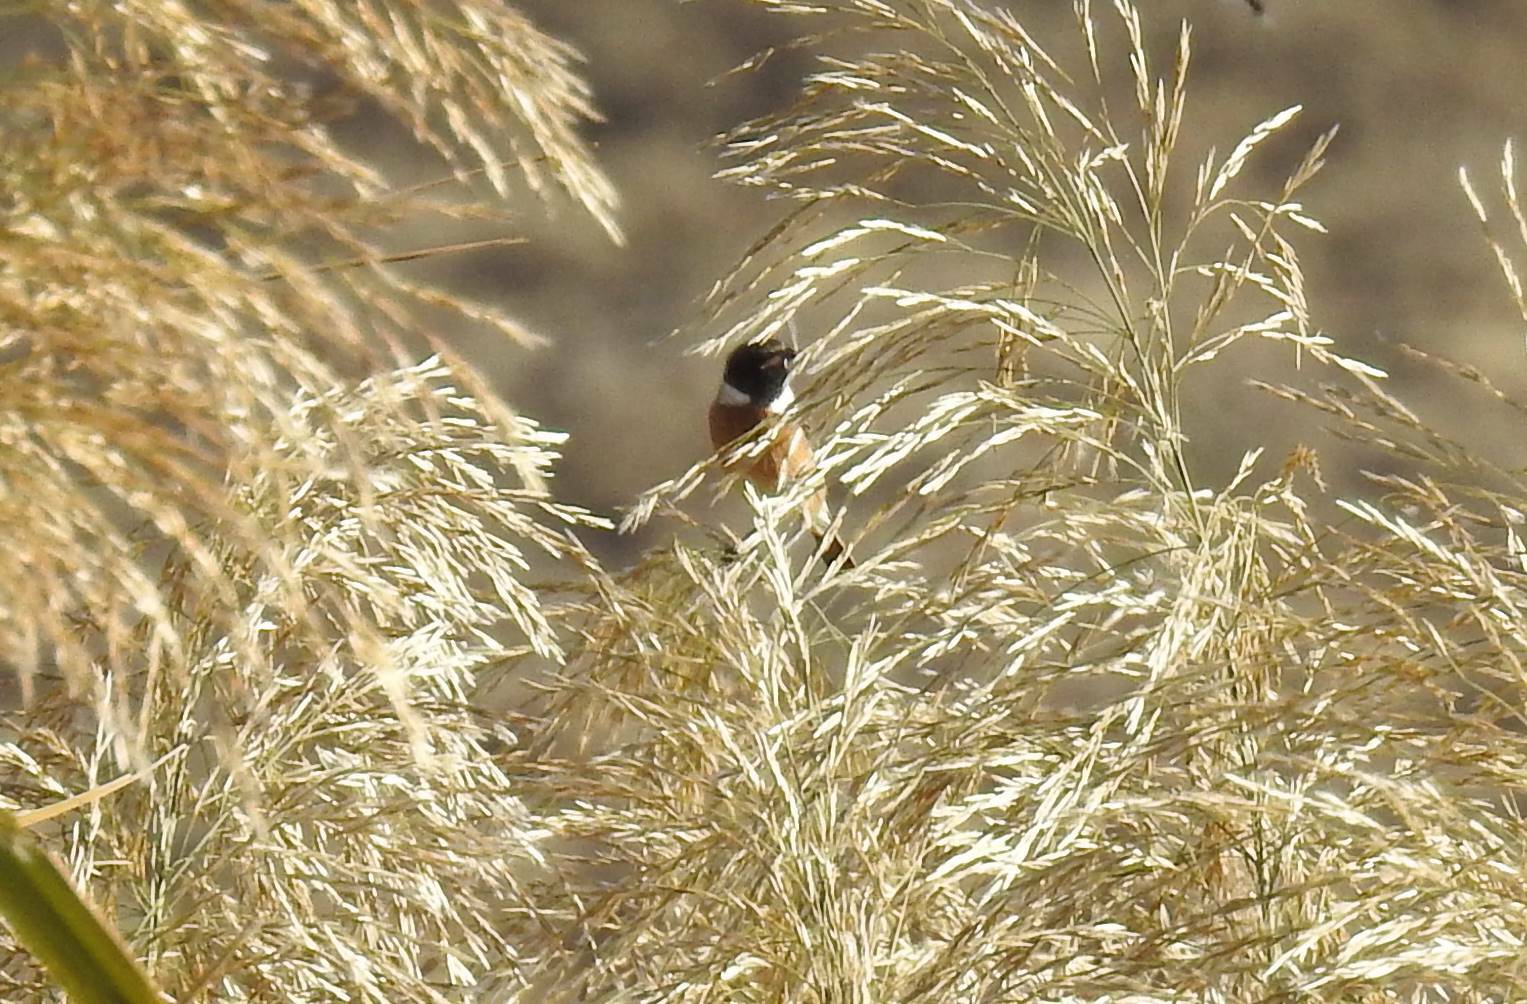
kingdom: Animalia
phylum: Chordata
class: Aves
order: Passeriformes
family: Muscicapidae
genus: Saxicola
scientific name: Saxicola rubicola
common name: European stonechat
